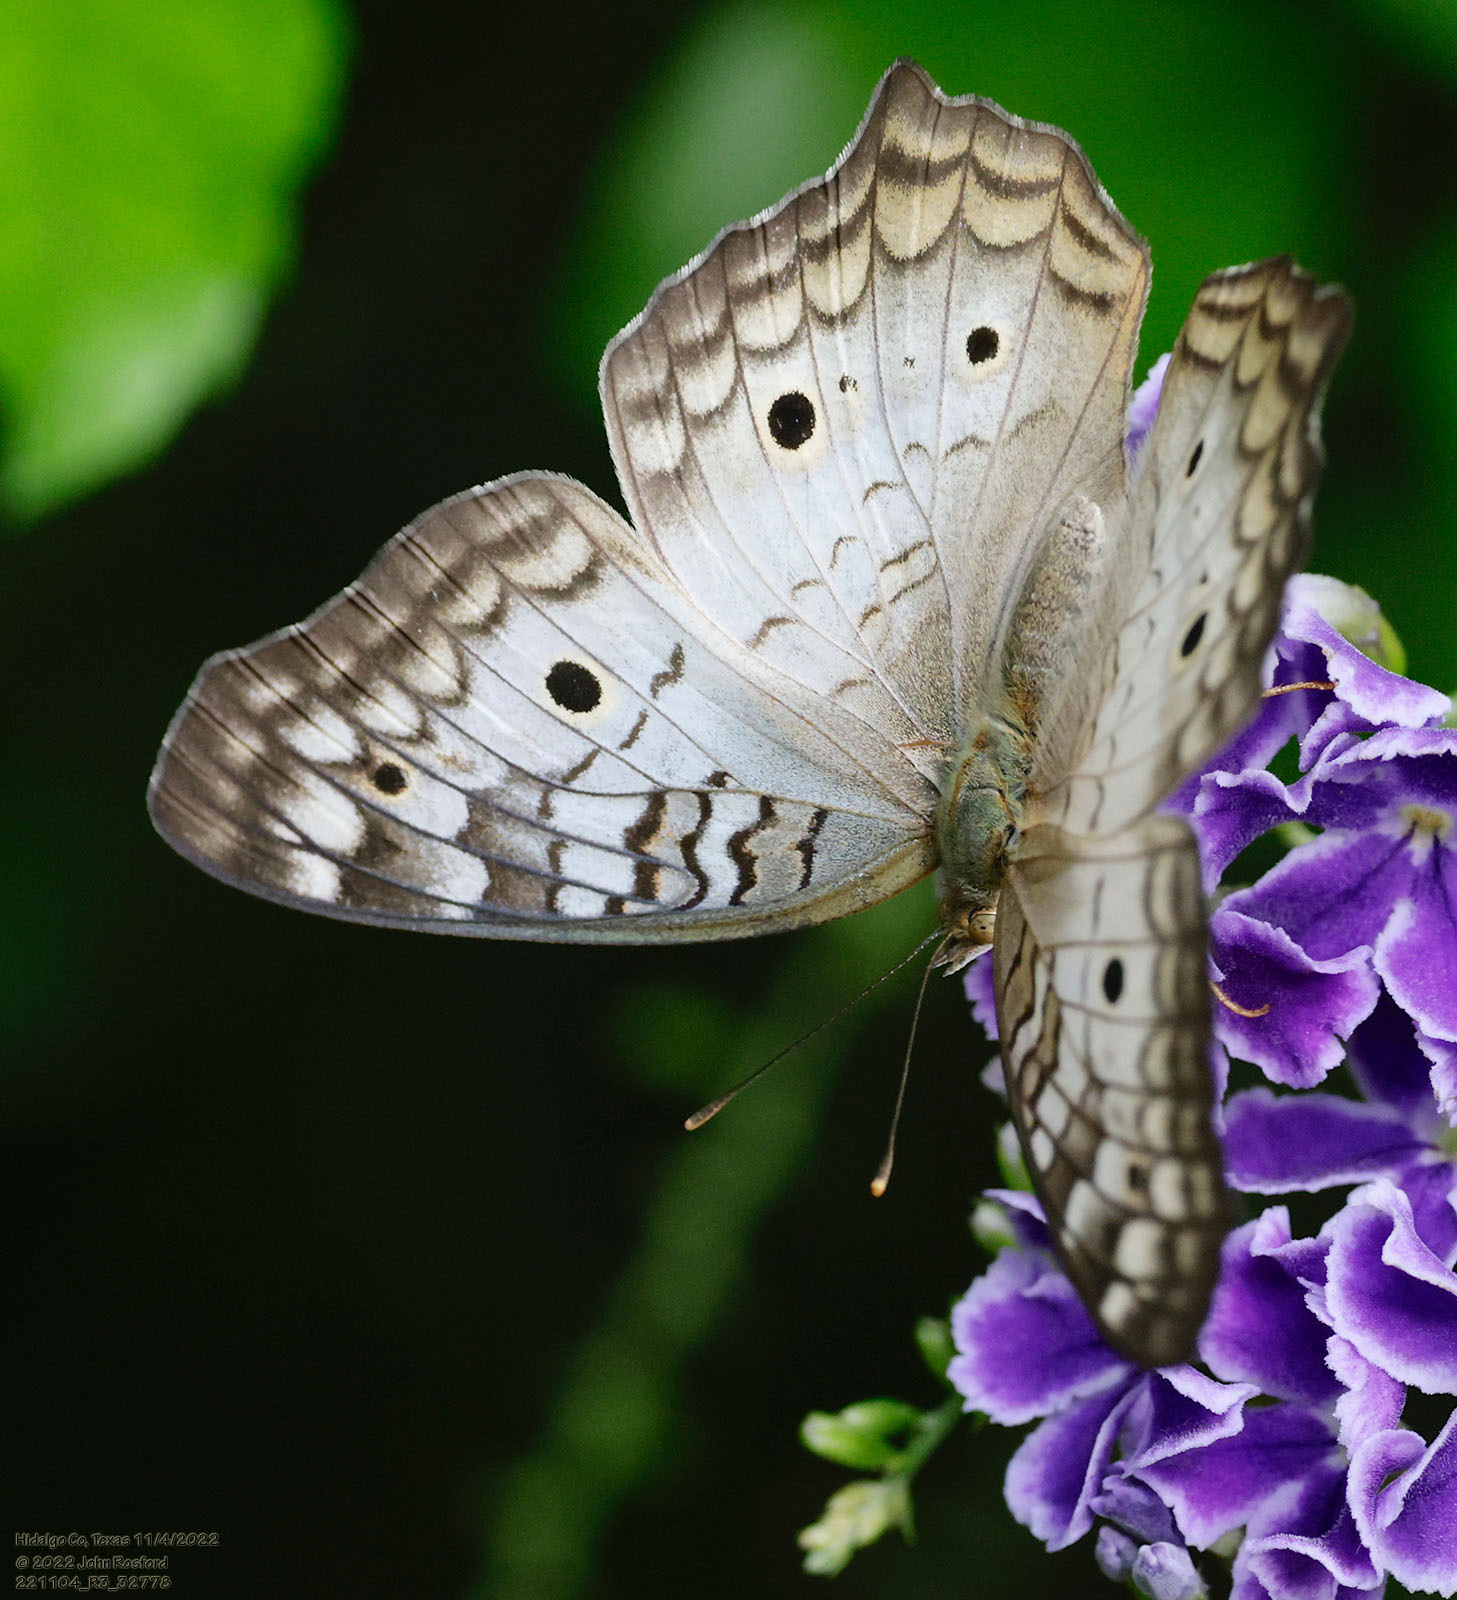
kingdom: Animalia
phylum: Arthropoda
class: Insecta
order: Lepidoptera
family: Nymphalidae
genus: Anartia
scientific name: Anartia jatrophae
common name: White peacock
